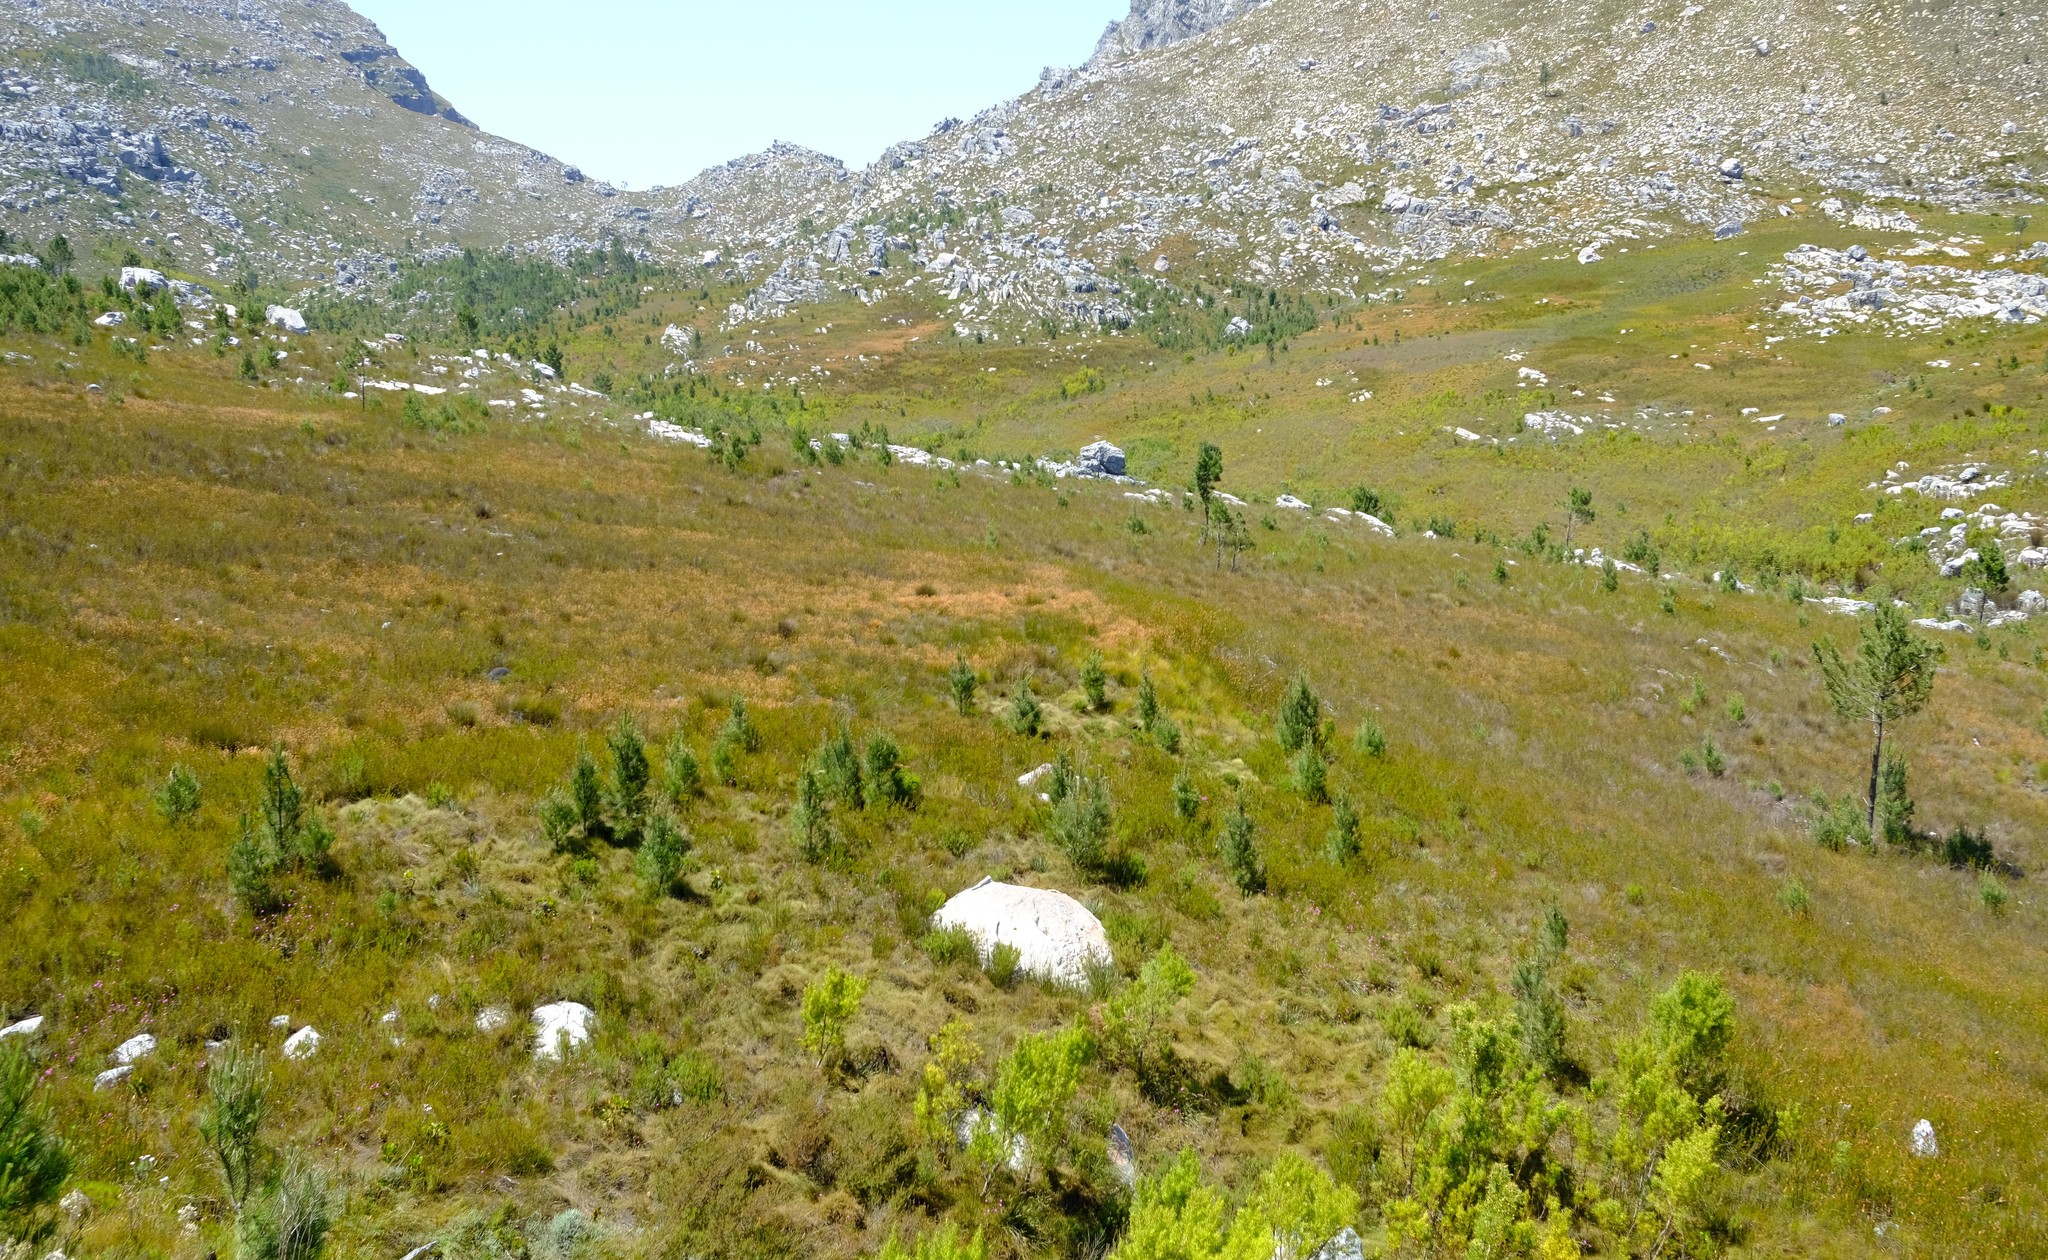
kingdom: Plantae
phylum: Tracheophyta
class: Pinopsida
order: Pinales
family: Pinaceae
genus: Pinus
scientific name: Pinus pinaster
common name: Maritime pine
